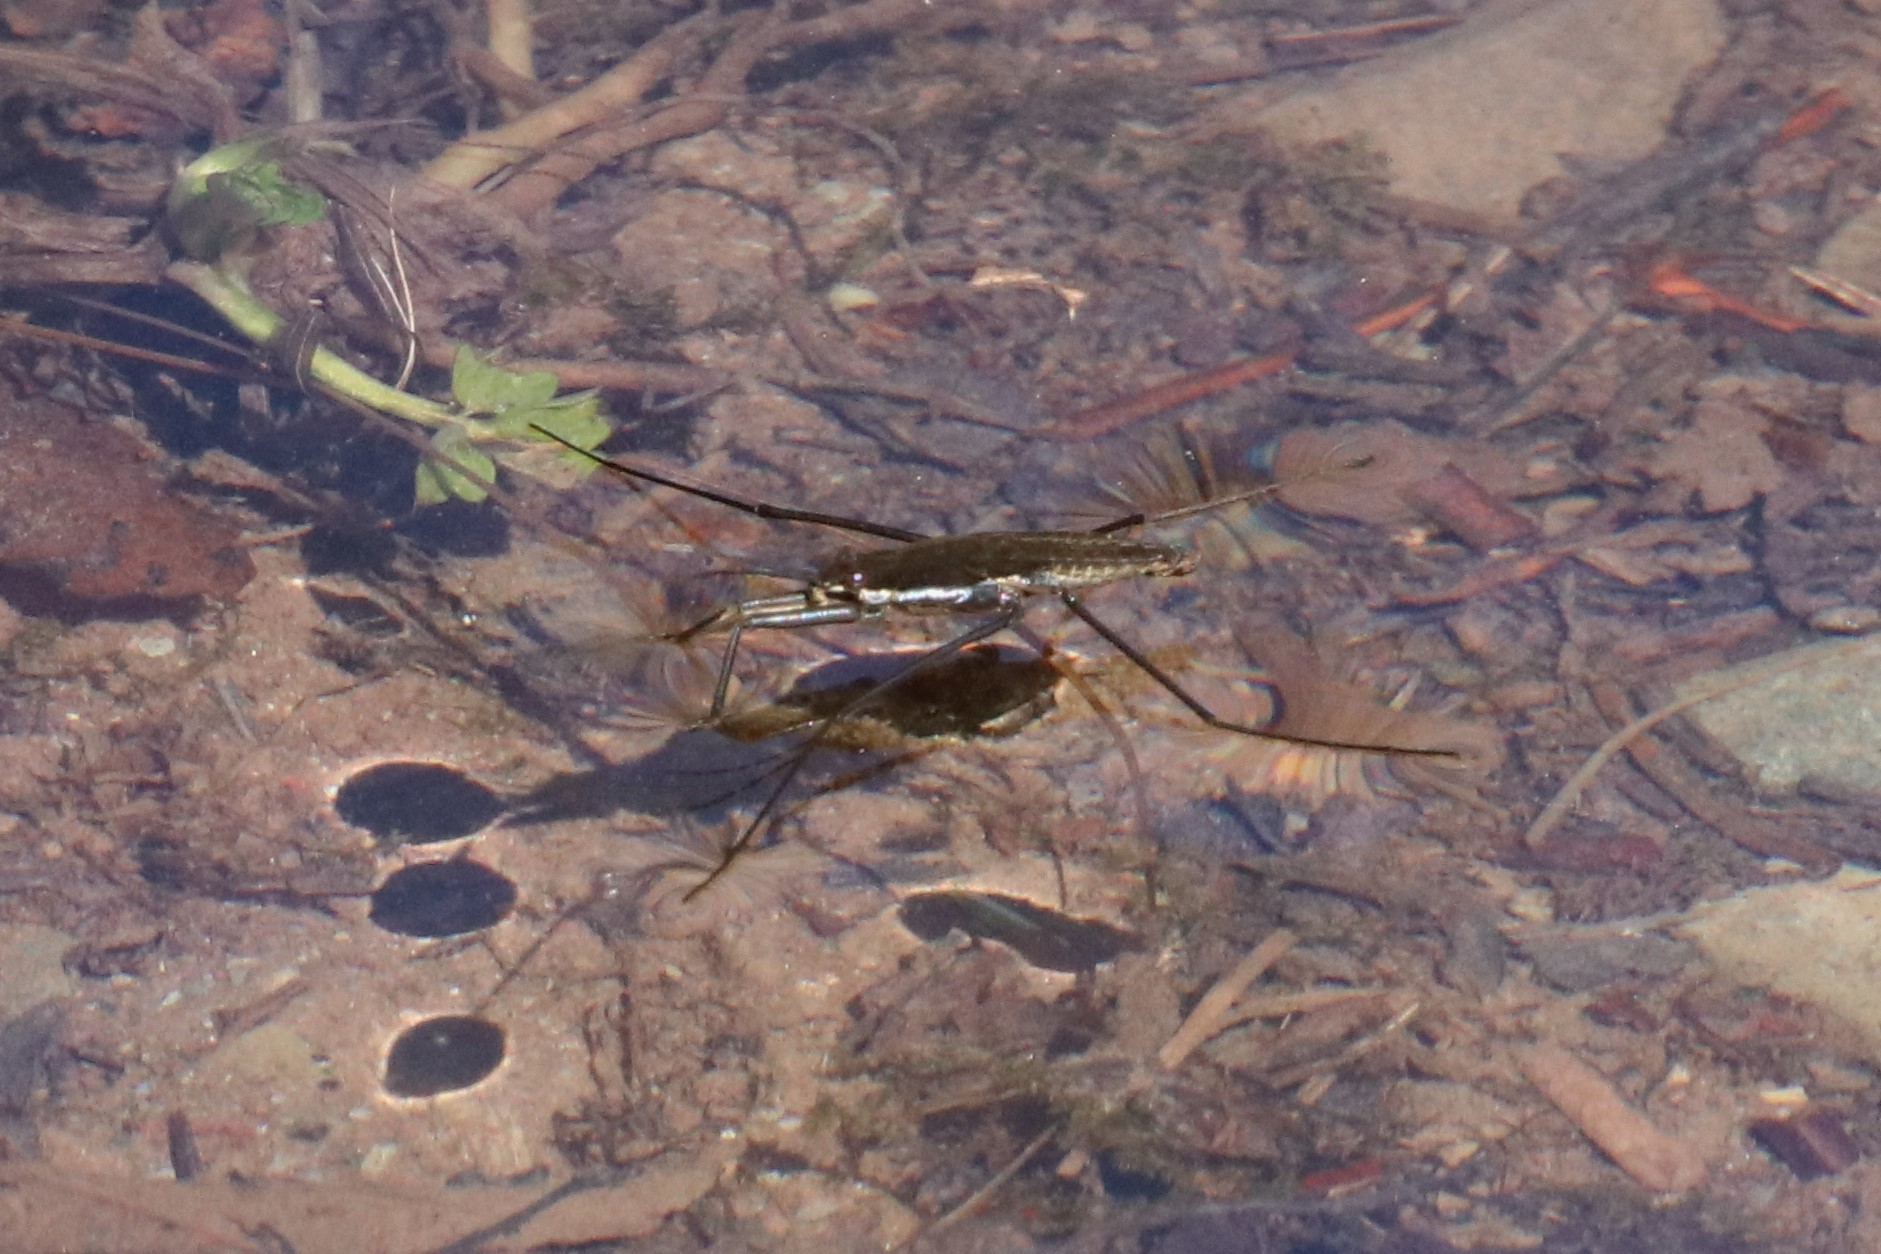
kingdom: Animalia
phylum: Arthropoda
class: Insecta
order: Hemiptera
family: Gerridae
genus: Aquarius
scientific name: Aquarius remigis
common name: Common water strider
